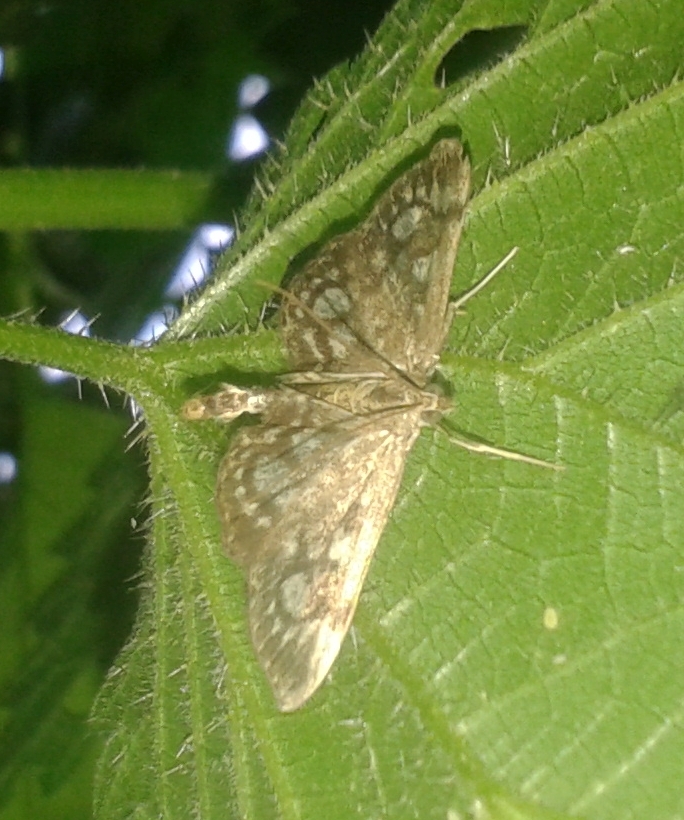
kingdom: Animalia
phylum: Arthropoda
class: Insecta
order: Lepidoptera
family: Crambidae
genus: Anania
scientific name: Anania coronata
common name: Elder pearl
